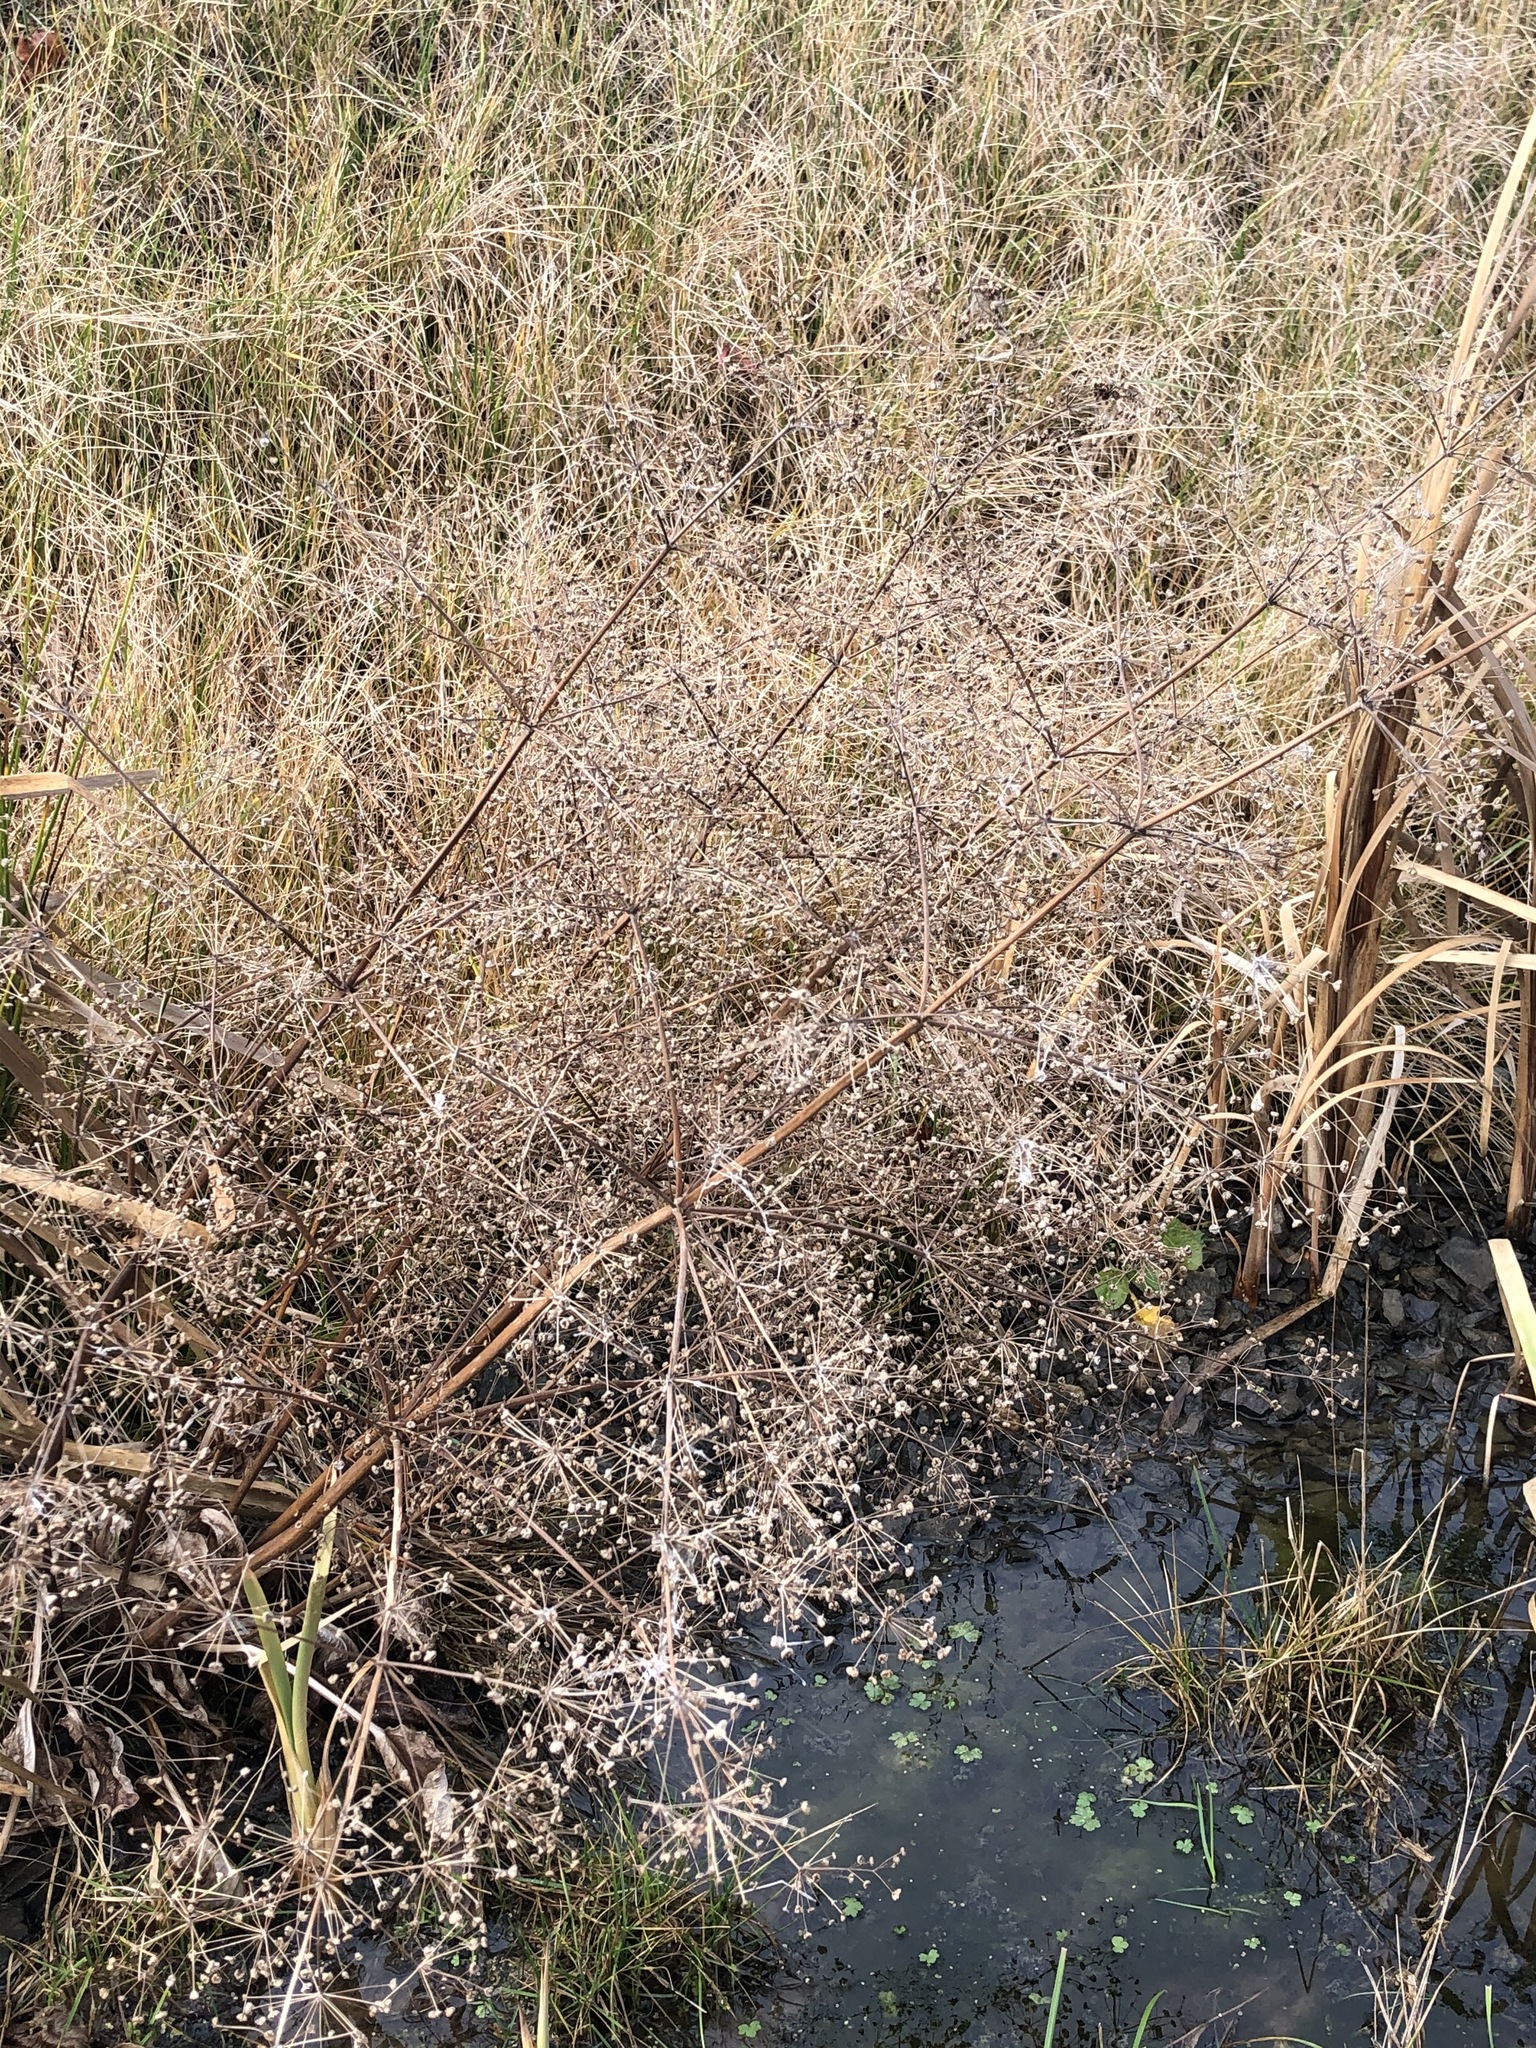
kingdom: Plantae
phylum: Tracheophyta
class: Liliopsida
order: Alismatales
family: Alismataceae
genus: Alisma
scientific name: Alisma plantago-aquatica
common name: Water-plantain
